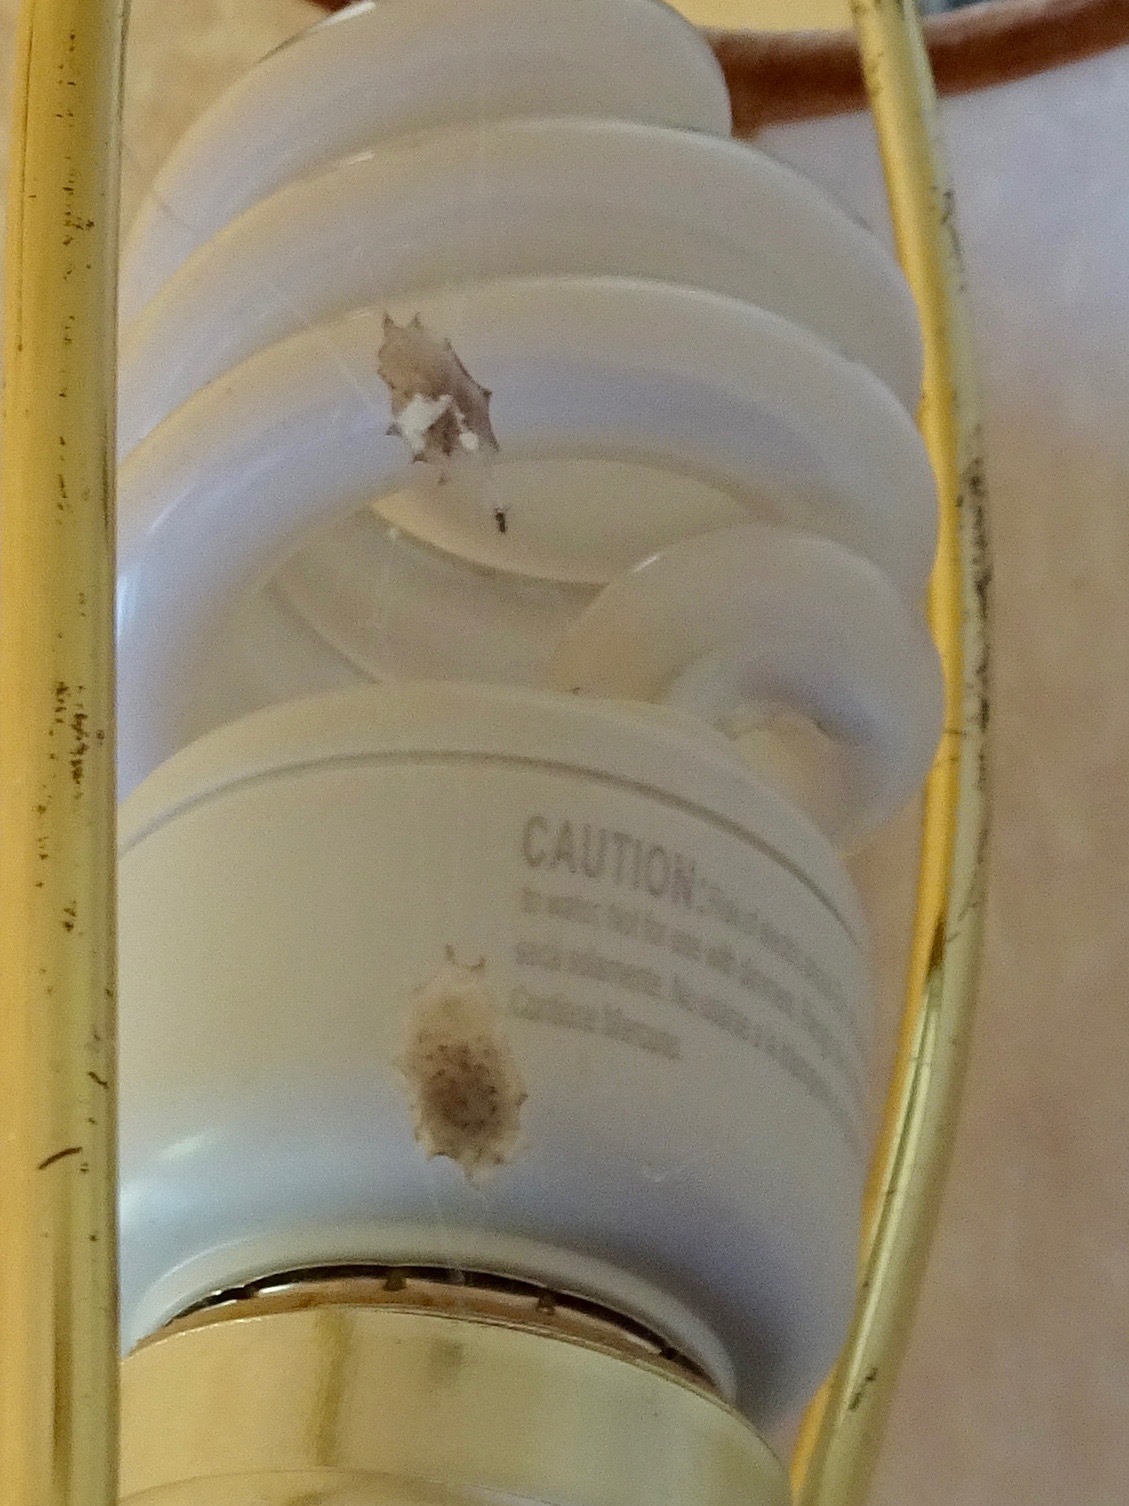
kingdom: Animalia
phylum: Arthropoda
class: Arachnida
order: Araneae
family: Uloboridae
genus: Uloborus
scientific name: Uloborus diversus
